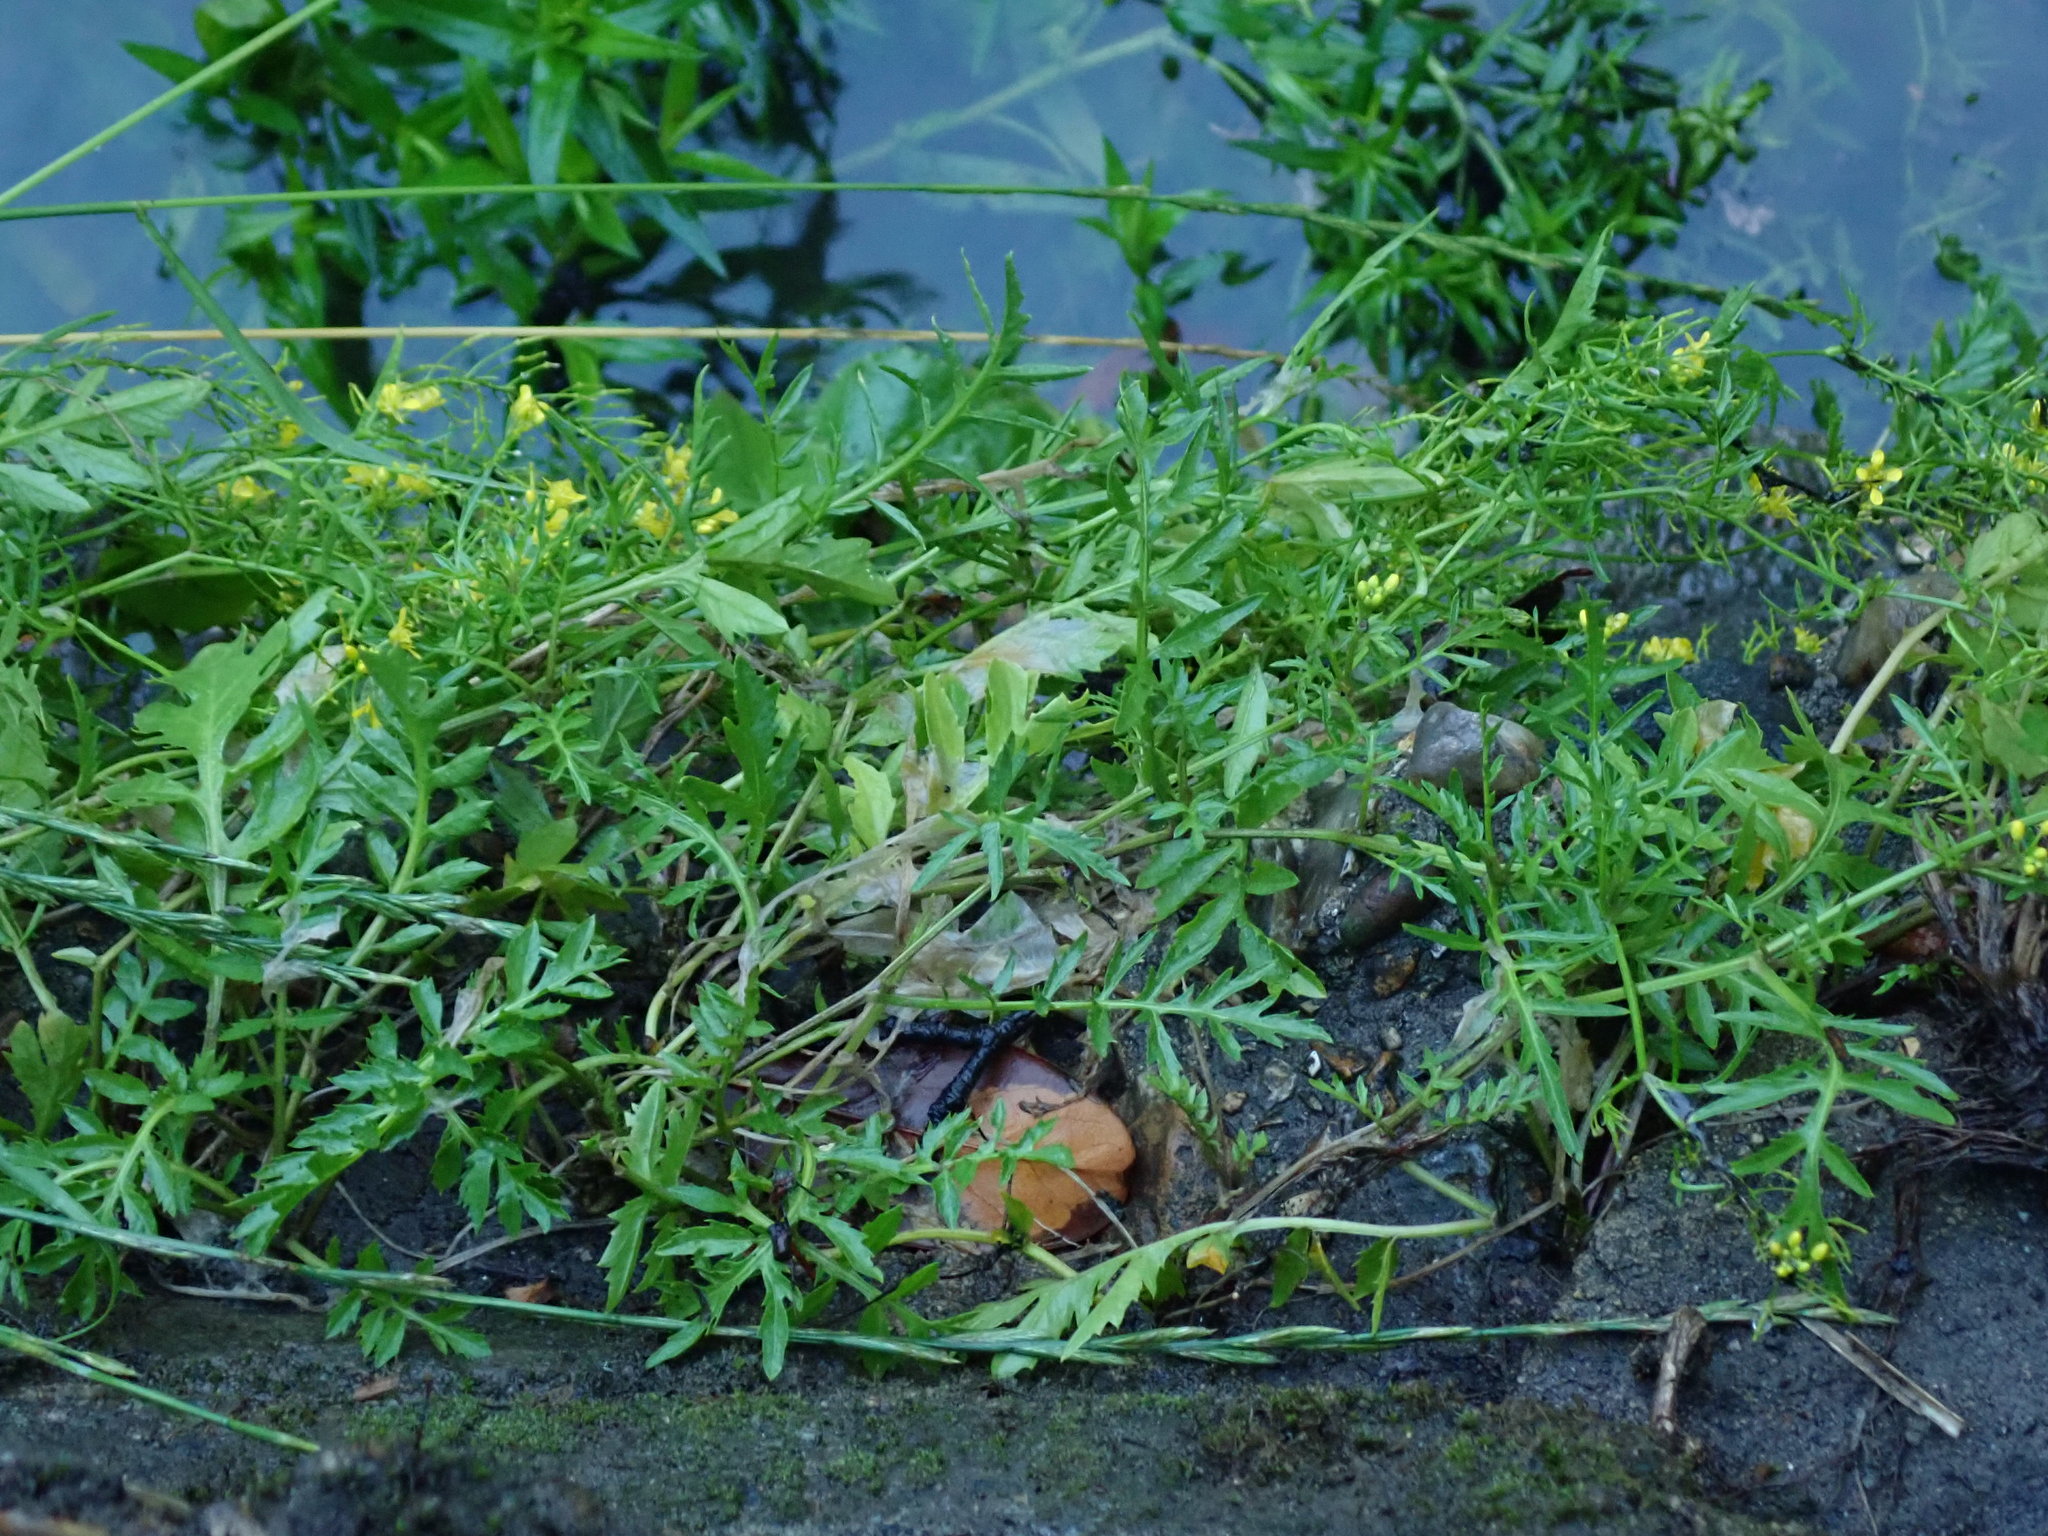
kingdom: Plantae
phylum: Tracheophyta
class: Magnoliopsida
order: Brassicales
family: Brassicaceae
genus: Rorippa
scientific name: Rorippa sylvestris
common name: Creeping yellowcress
